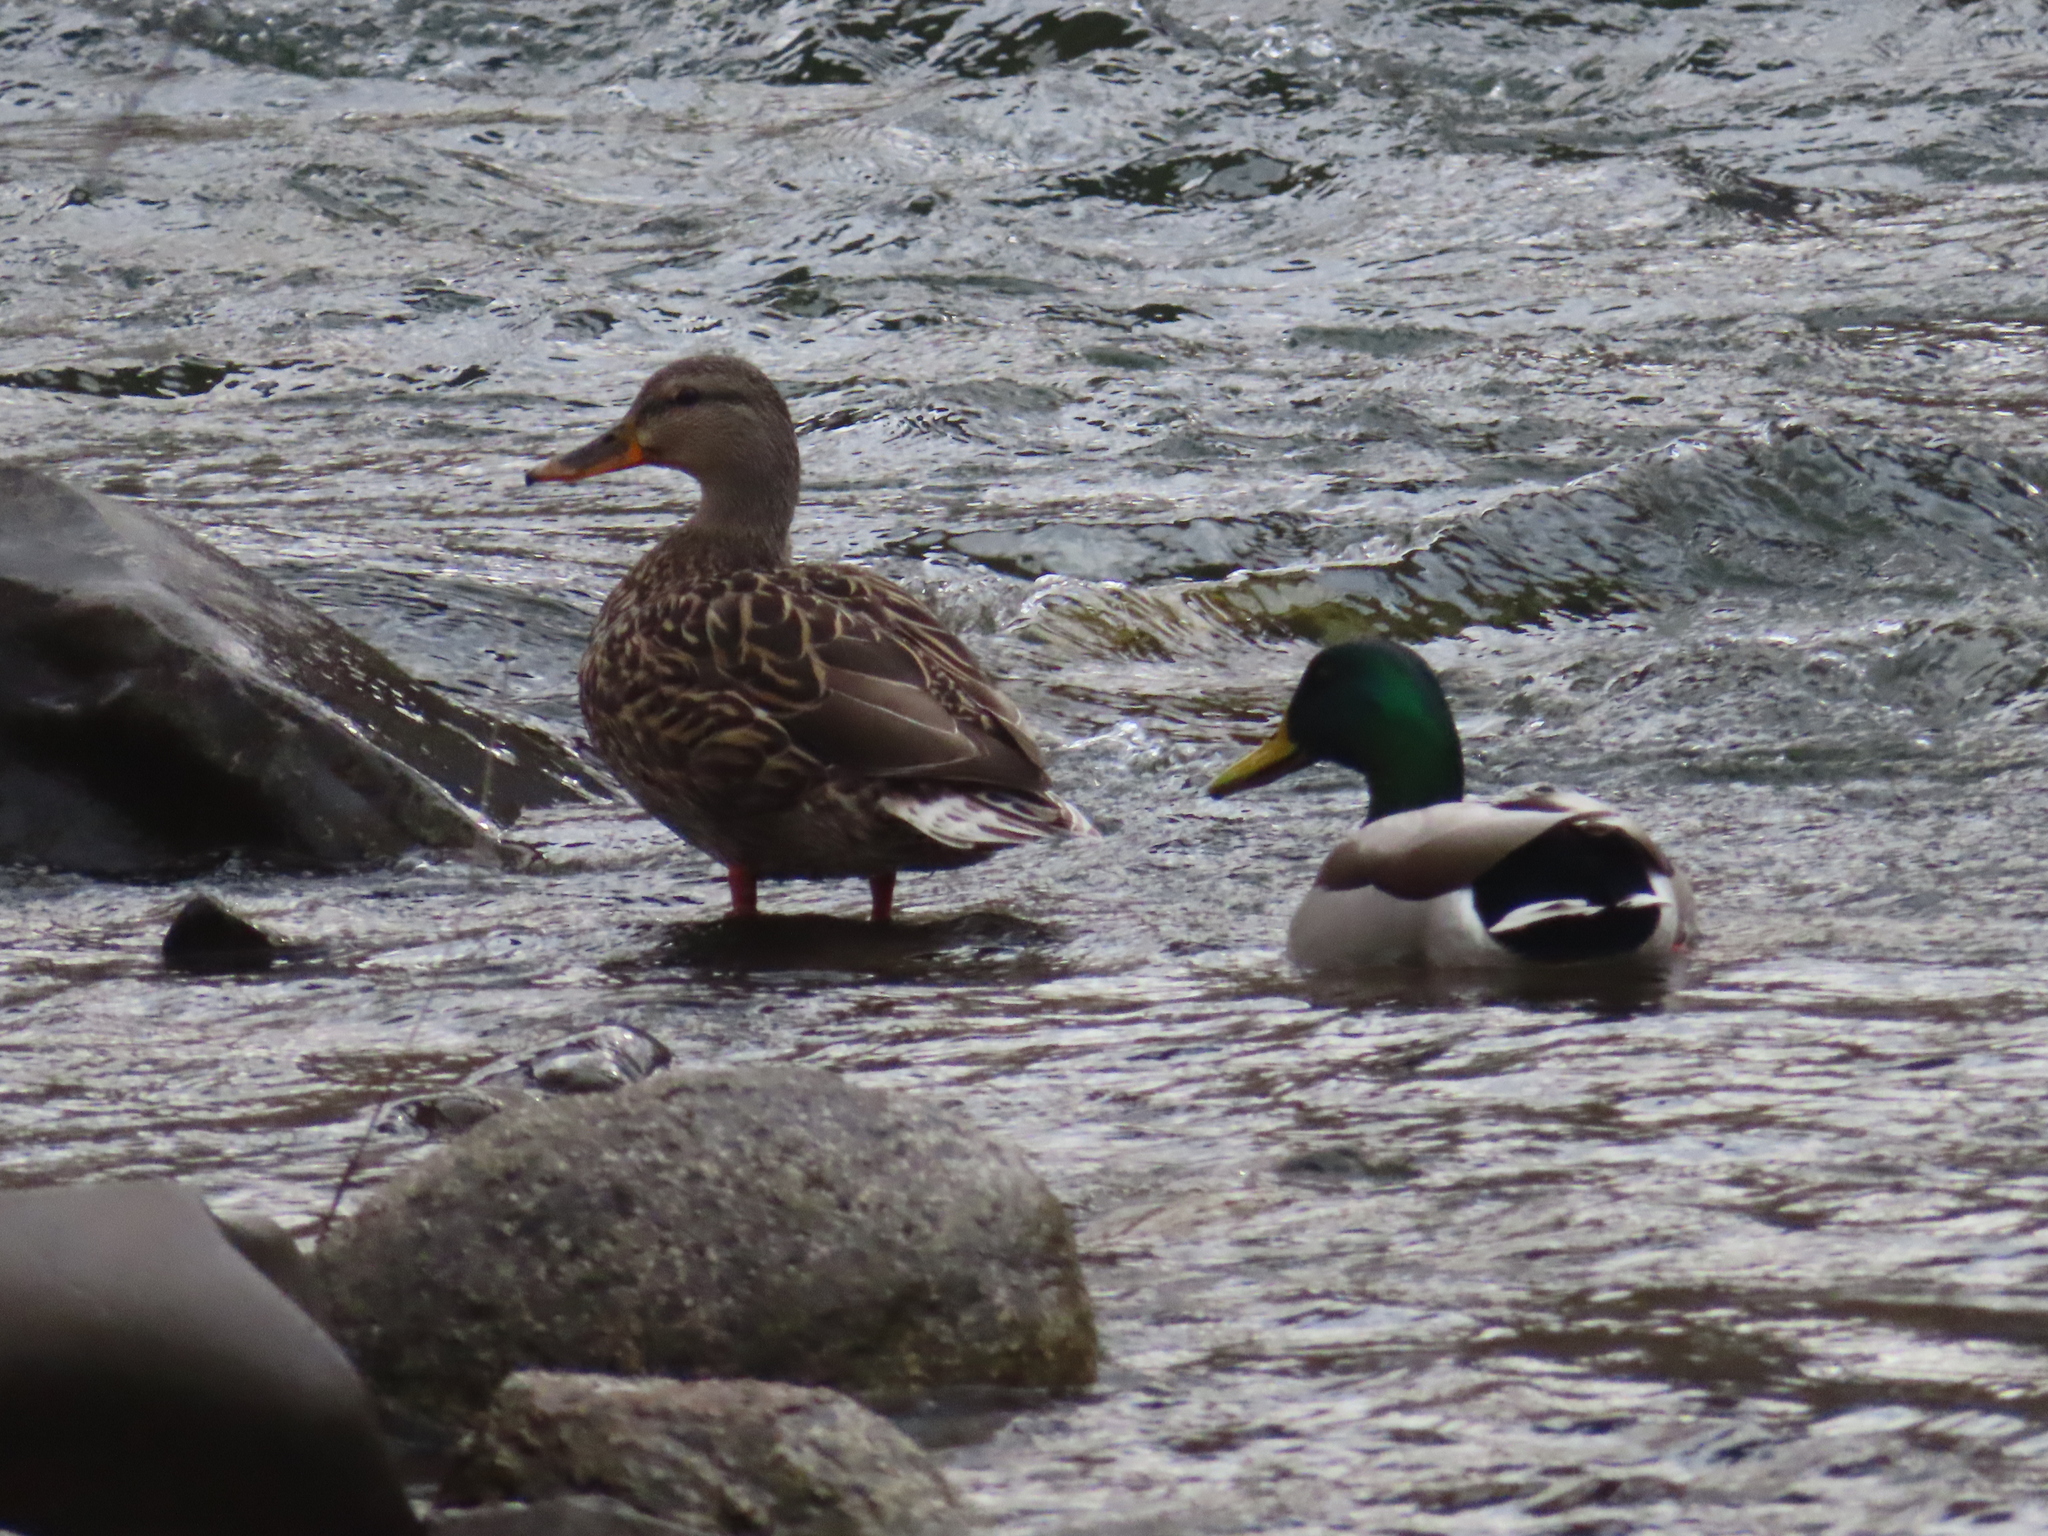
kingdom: Animalia
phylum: Chordata
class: Aves
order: Anseriformes
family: Anatidae
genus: Anas
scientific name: Anas platyrhynchos
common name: Mallard
